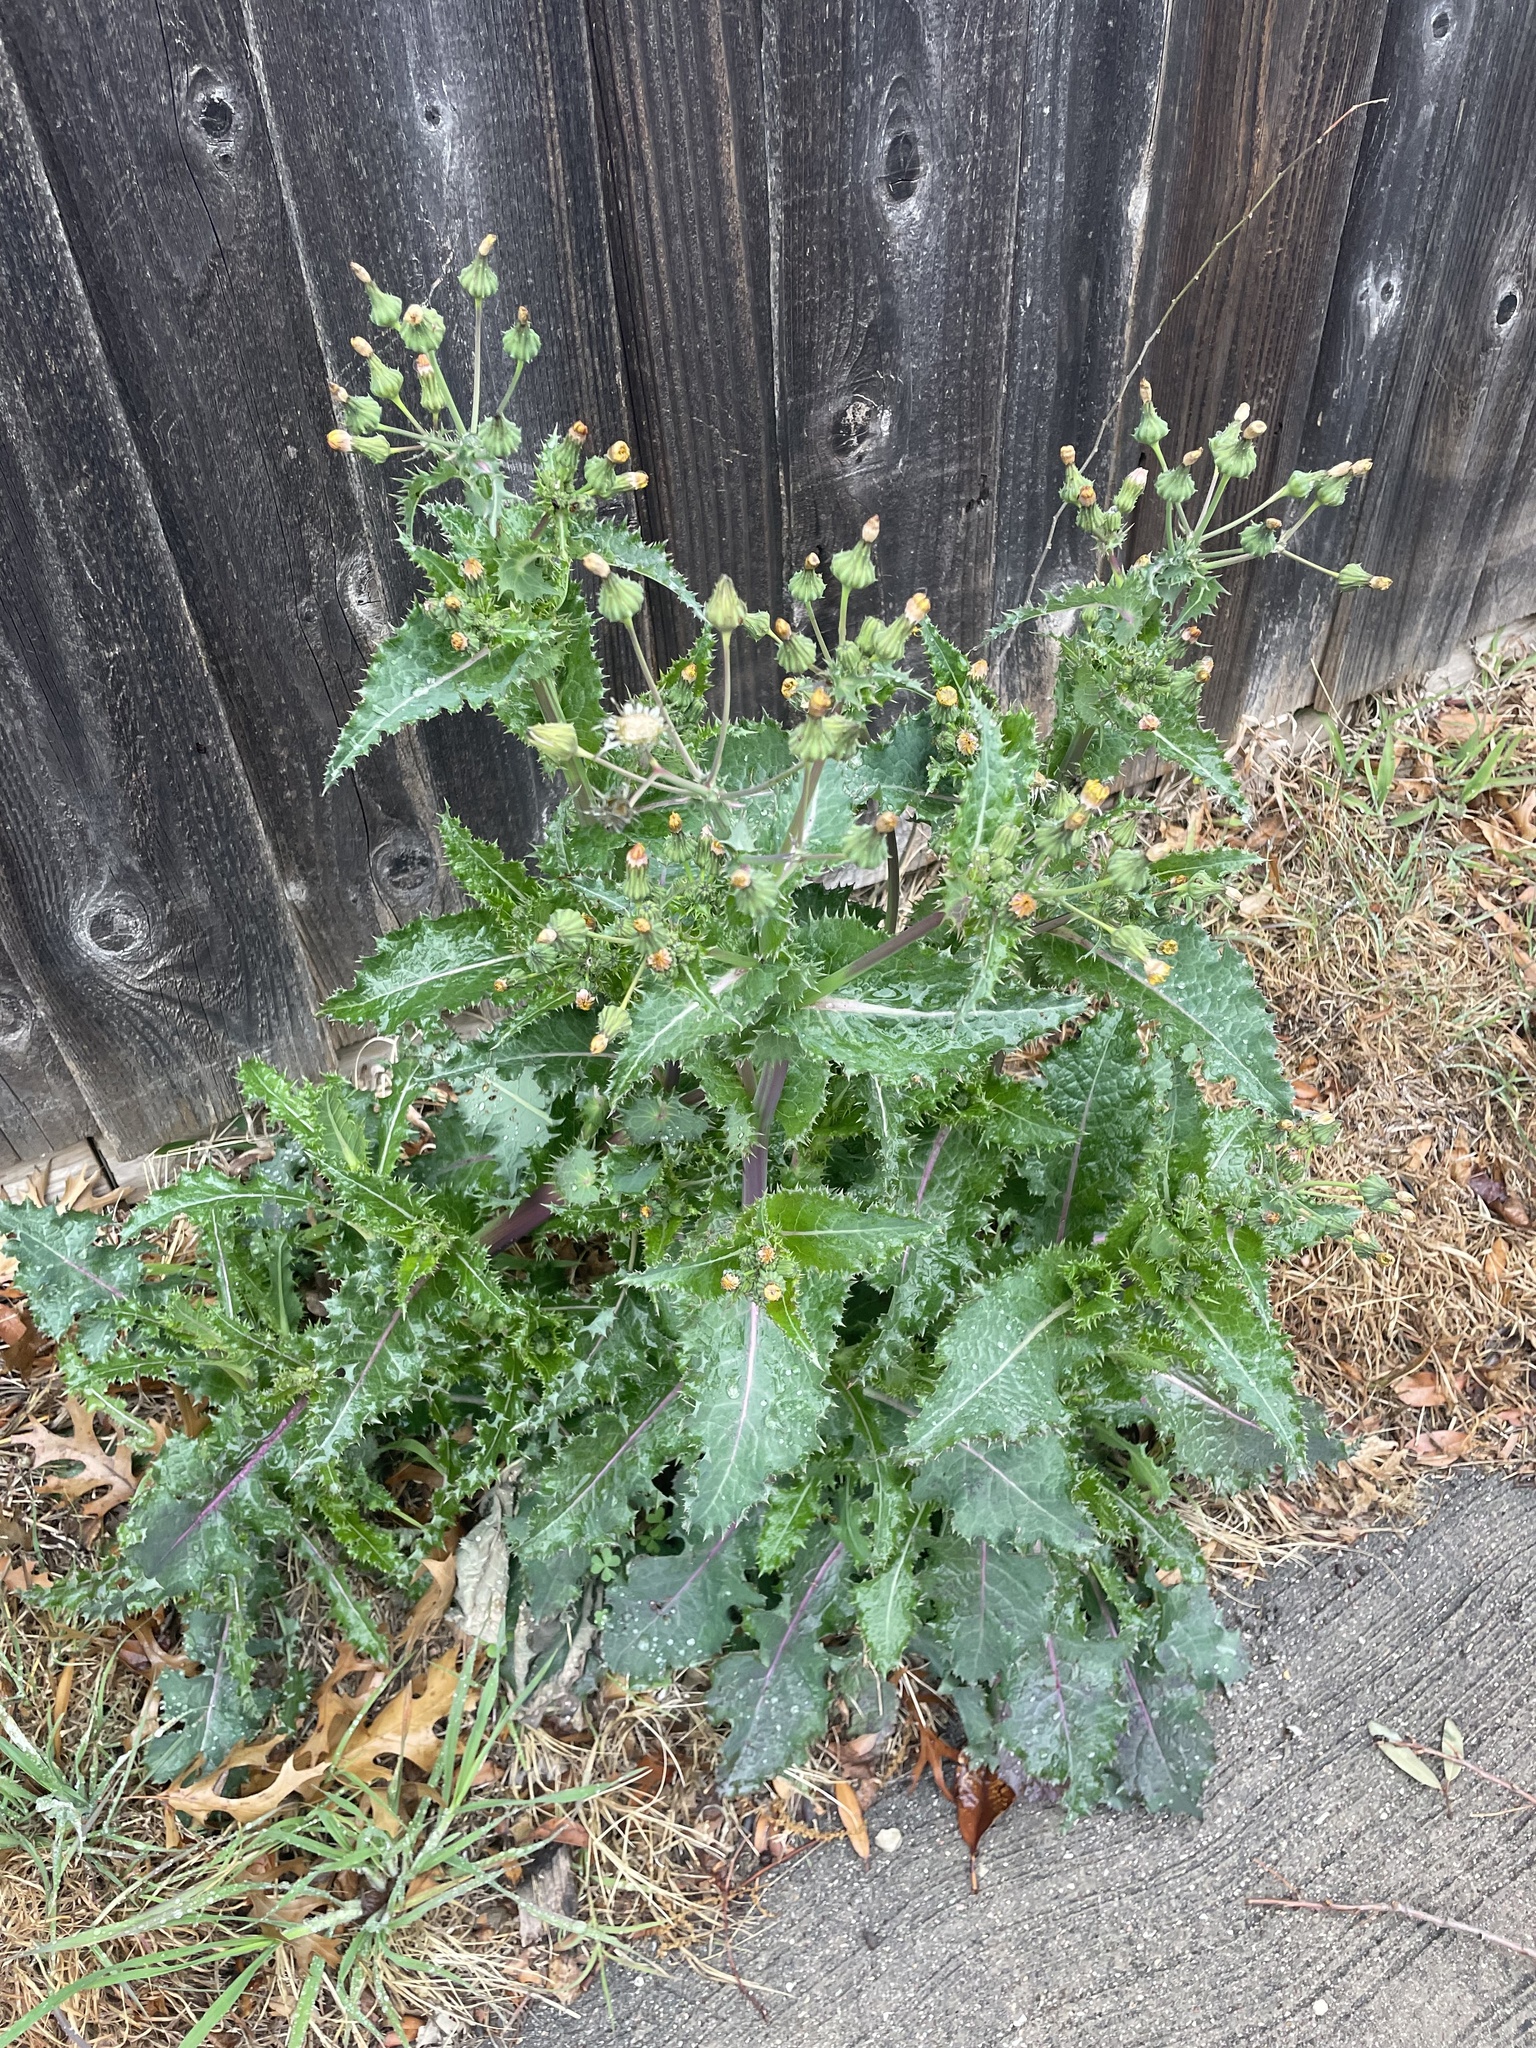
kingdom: Plantae
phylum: Tracheophyta
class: Magnoliopsida
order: Asterales
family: Asteraceae
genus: Sonchus
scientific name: Sonchus asper
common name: Prickly sow-thistle
